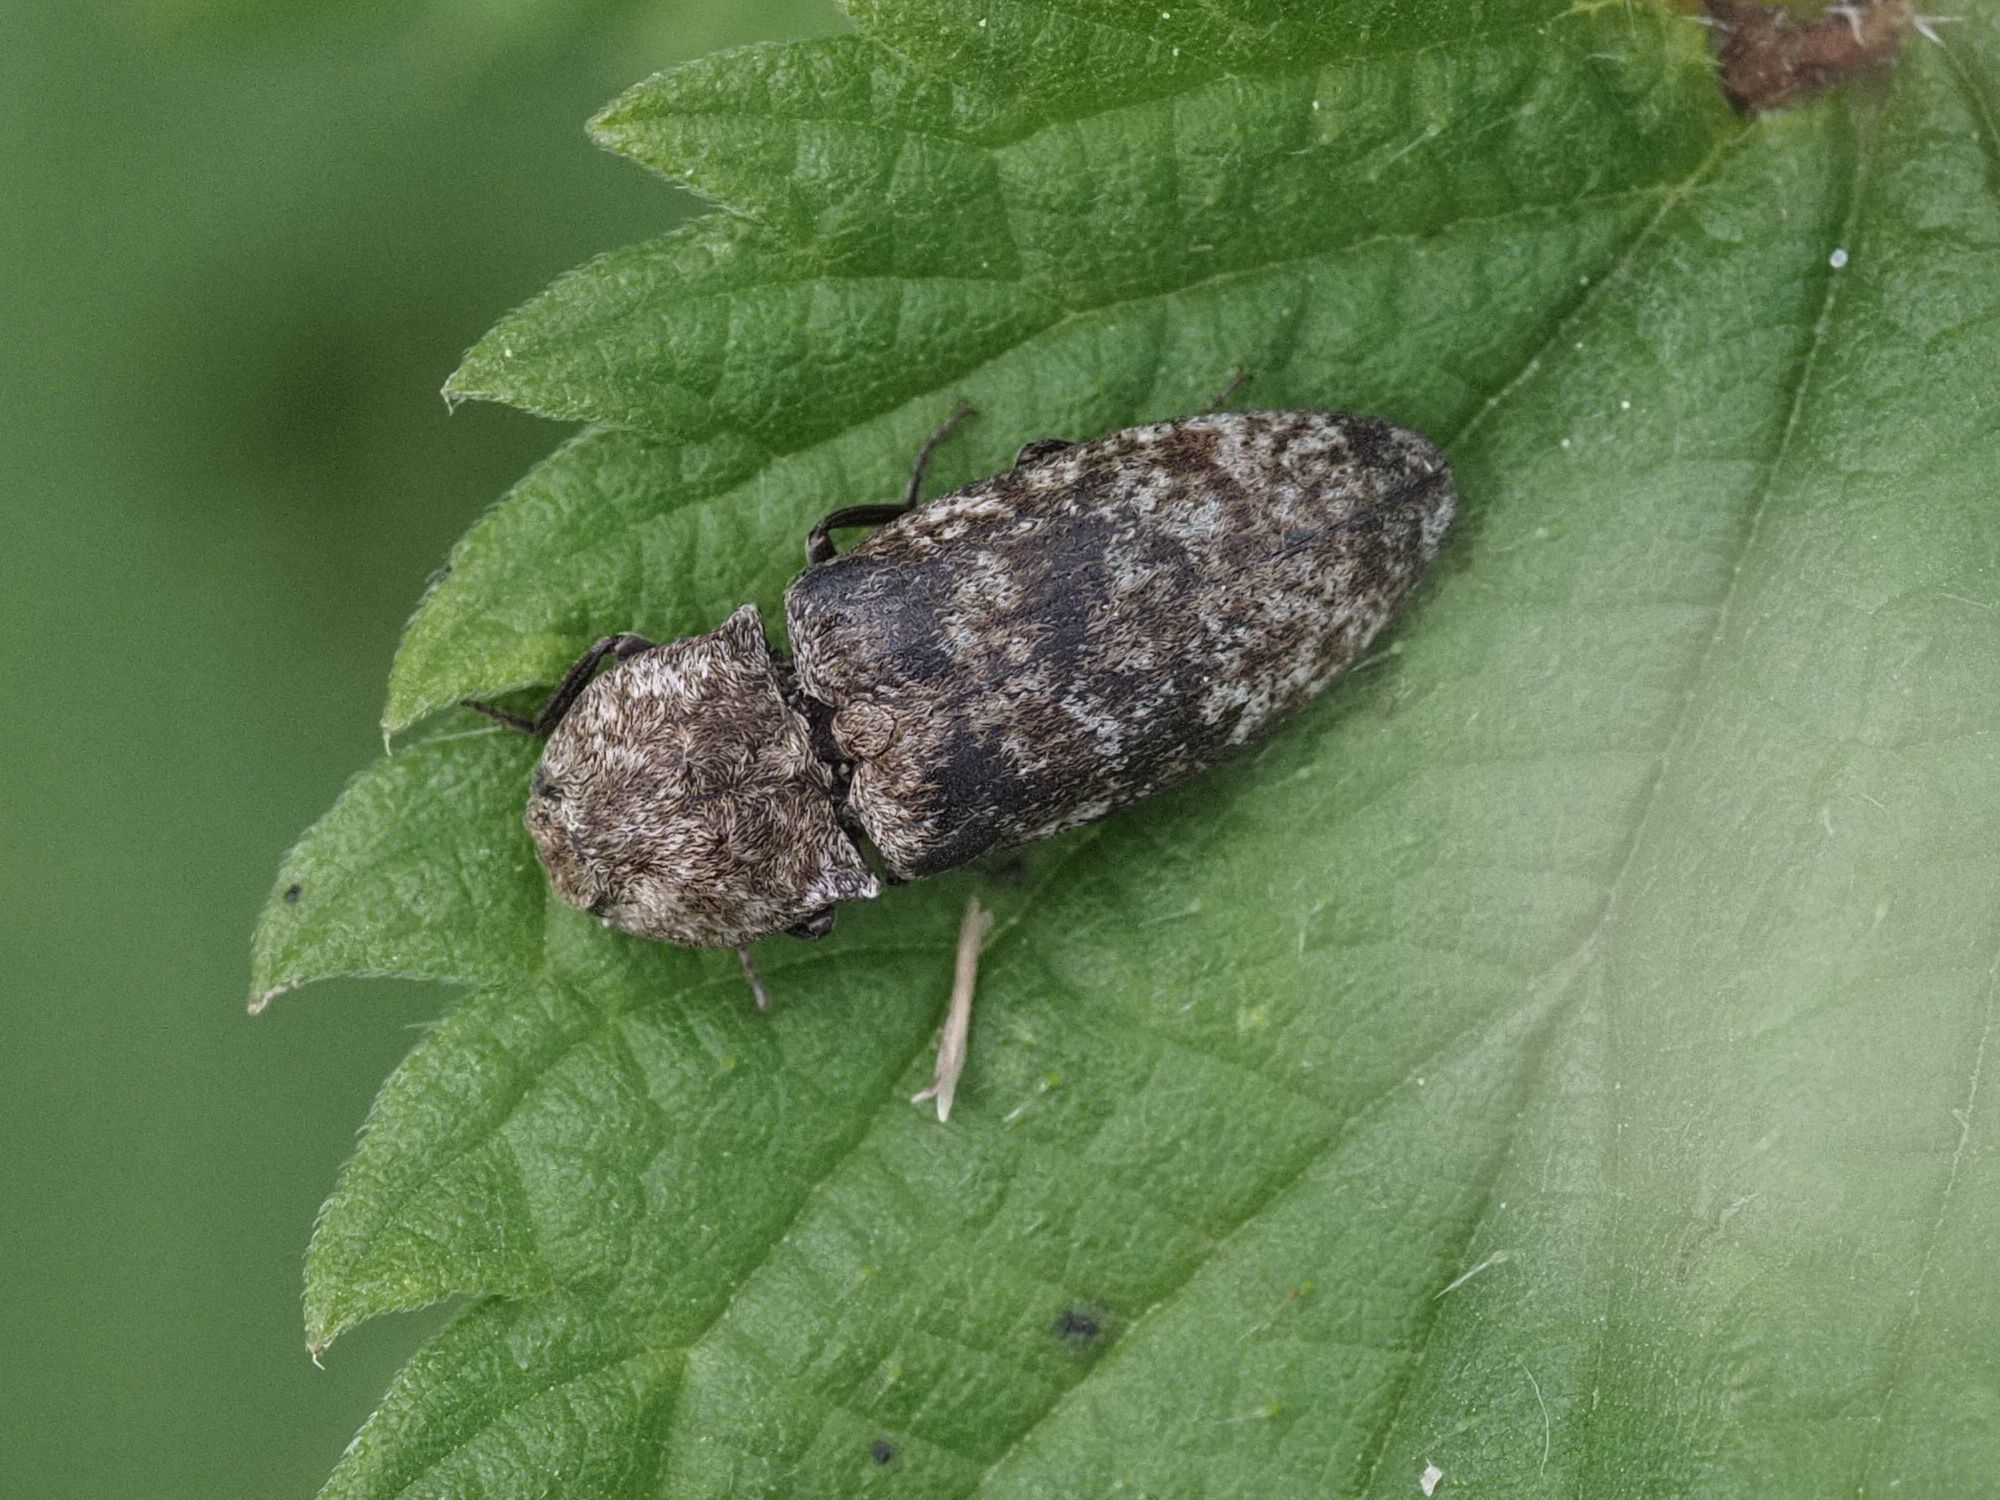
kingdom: Animalia
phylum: Arthropoda
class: Insecta
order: Coleoptera
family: Elateridae
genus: Agrypnus
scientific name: Agrypnus murinus
